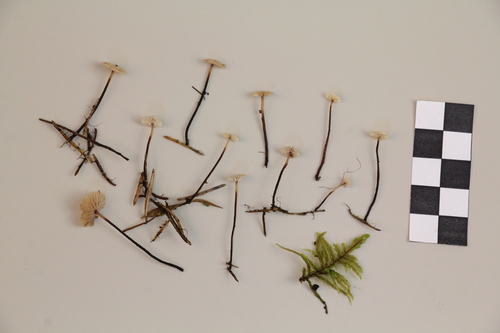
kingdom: Fungi
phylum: Basidiomycota
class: Agaricomycetes
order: Agaricales
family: Omphalotaceae
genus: Paragymnopus
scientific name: Paragymnopus perforans
